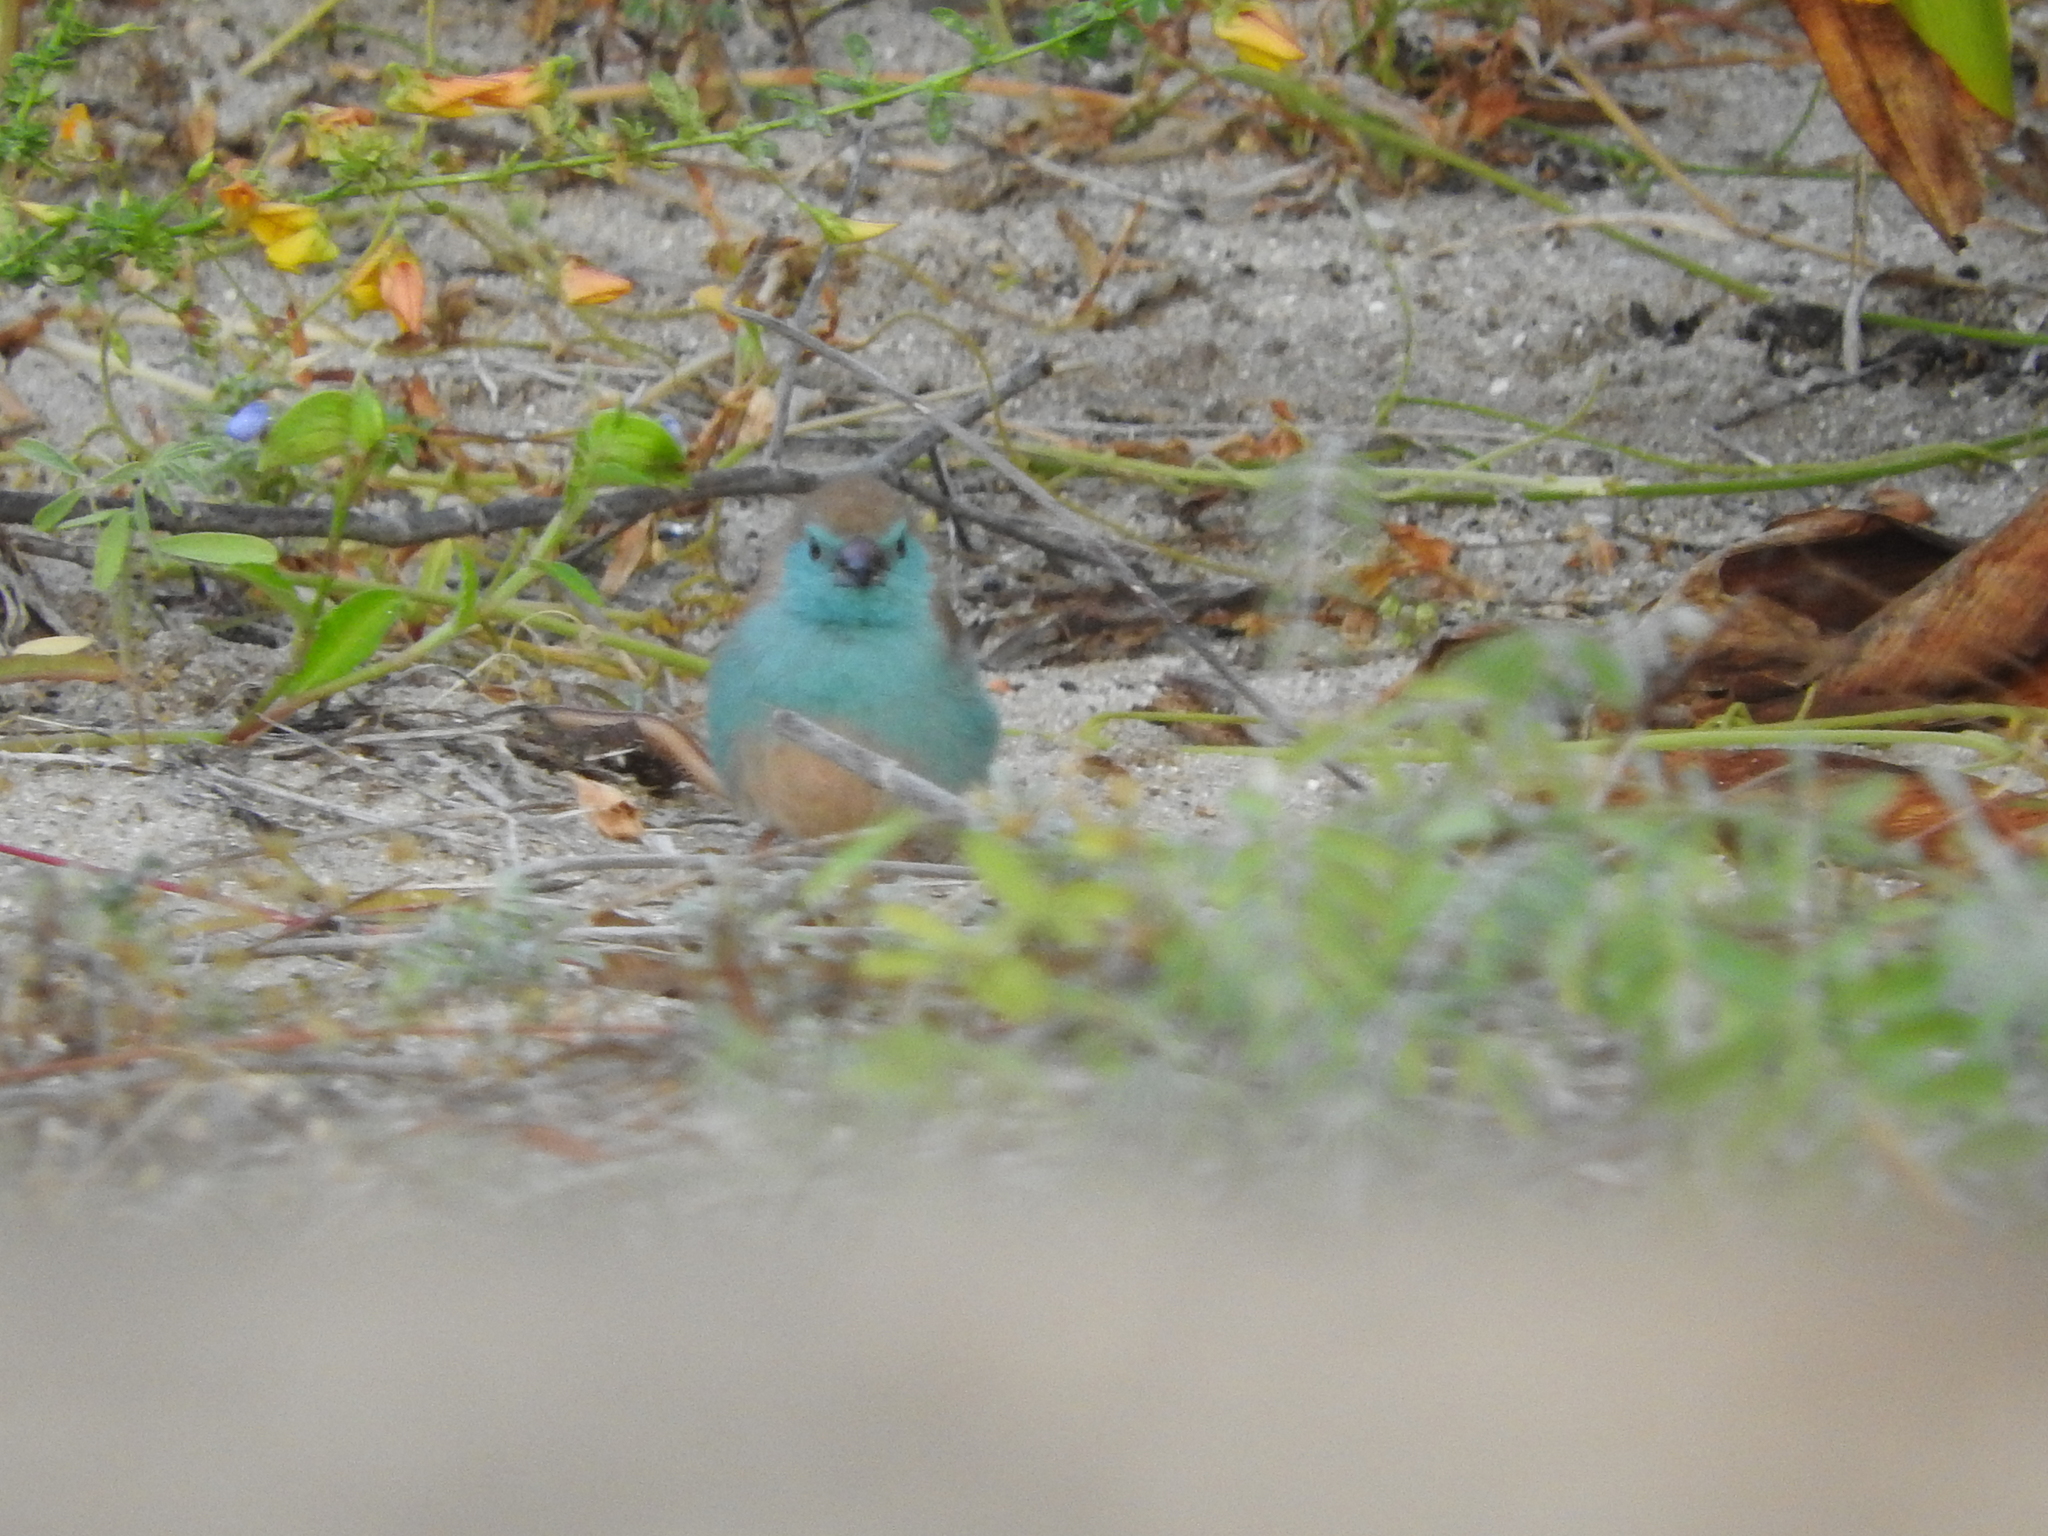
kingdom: Animalia
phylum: Chordata
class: Aves
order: Passeriformes
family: Estrildidae
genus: Uraeginthus
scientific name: Uraeginthus angolensis
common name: Blue waxbill
